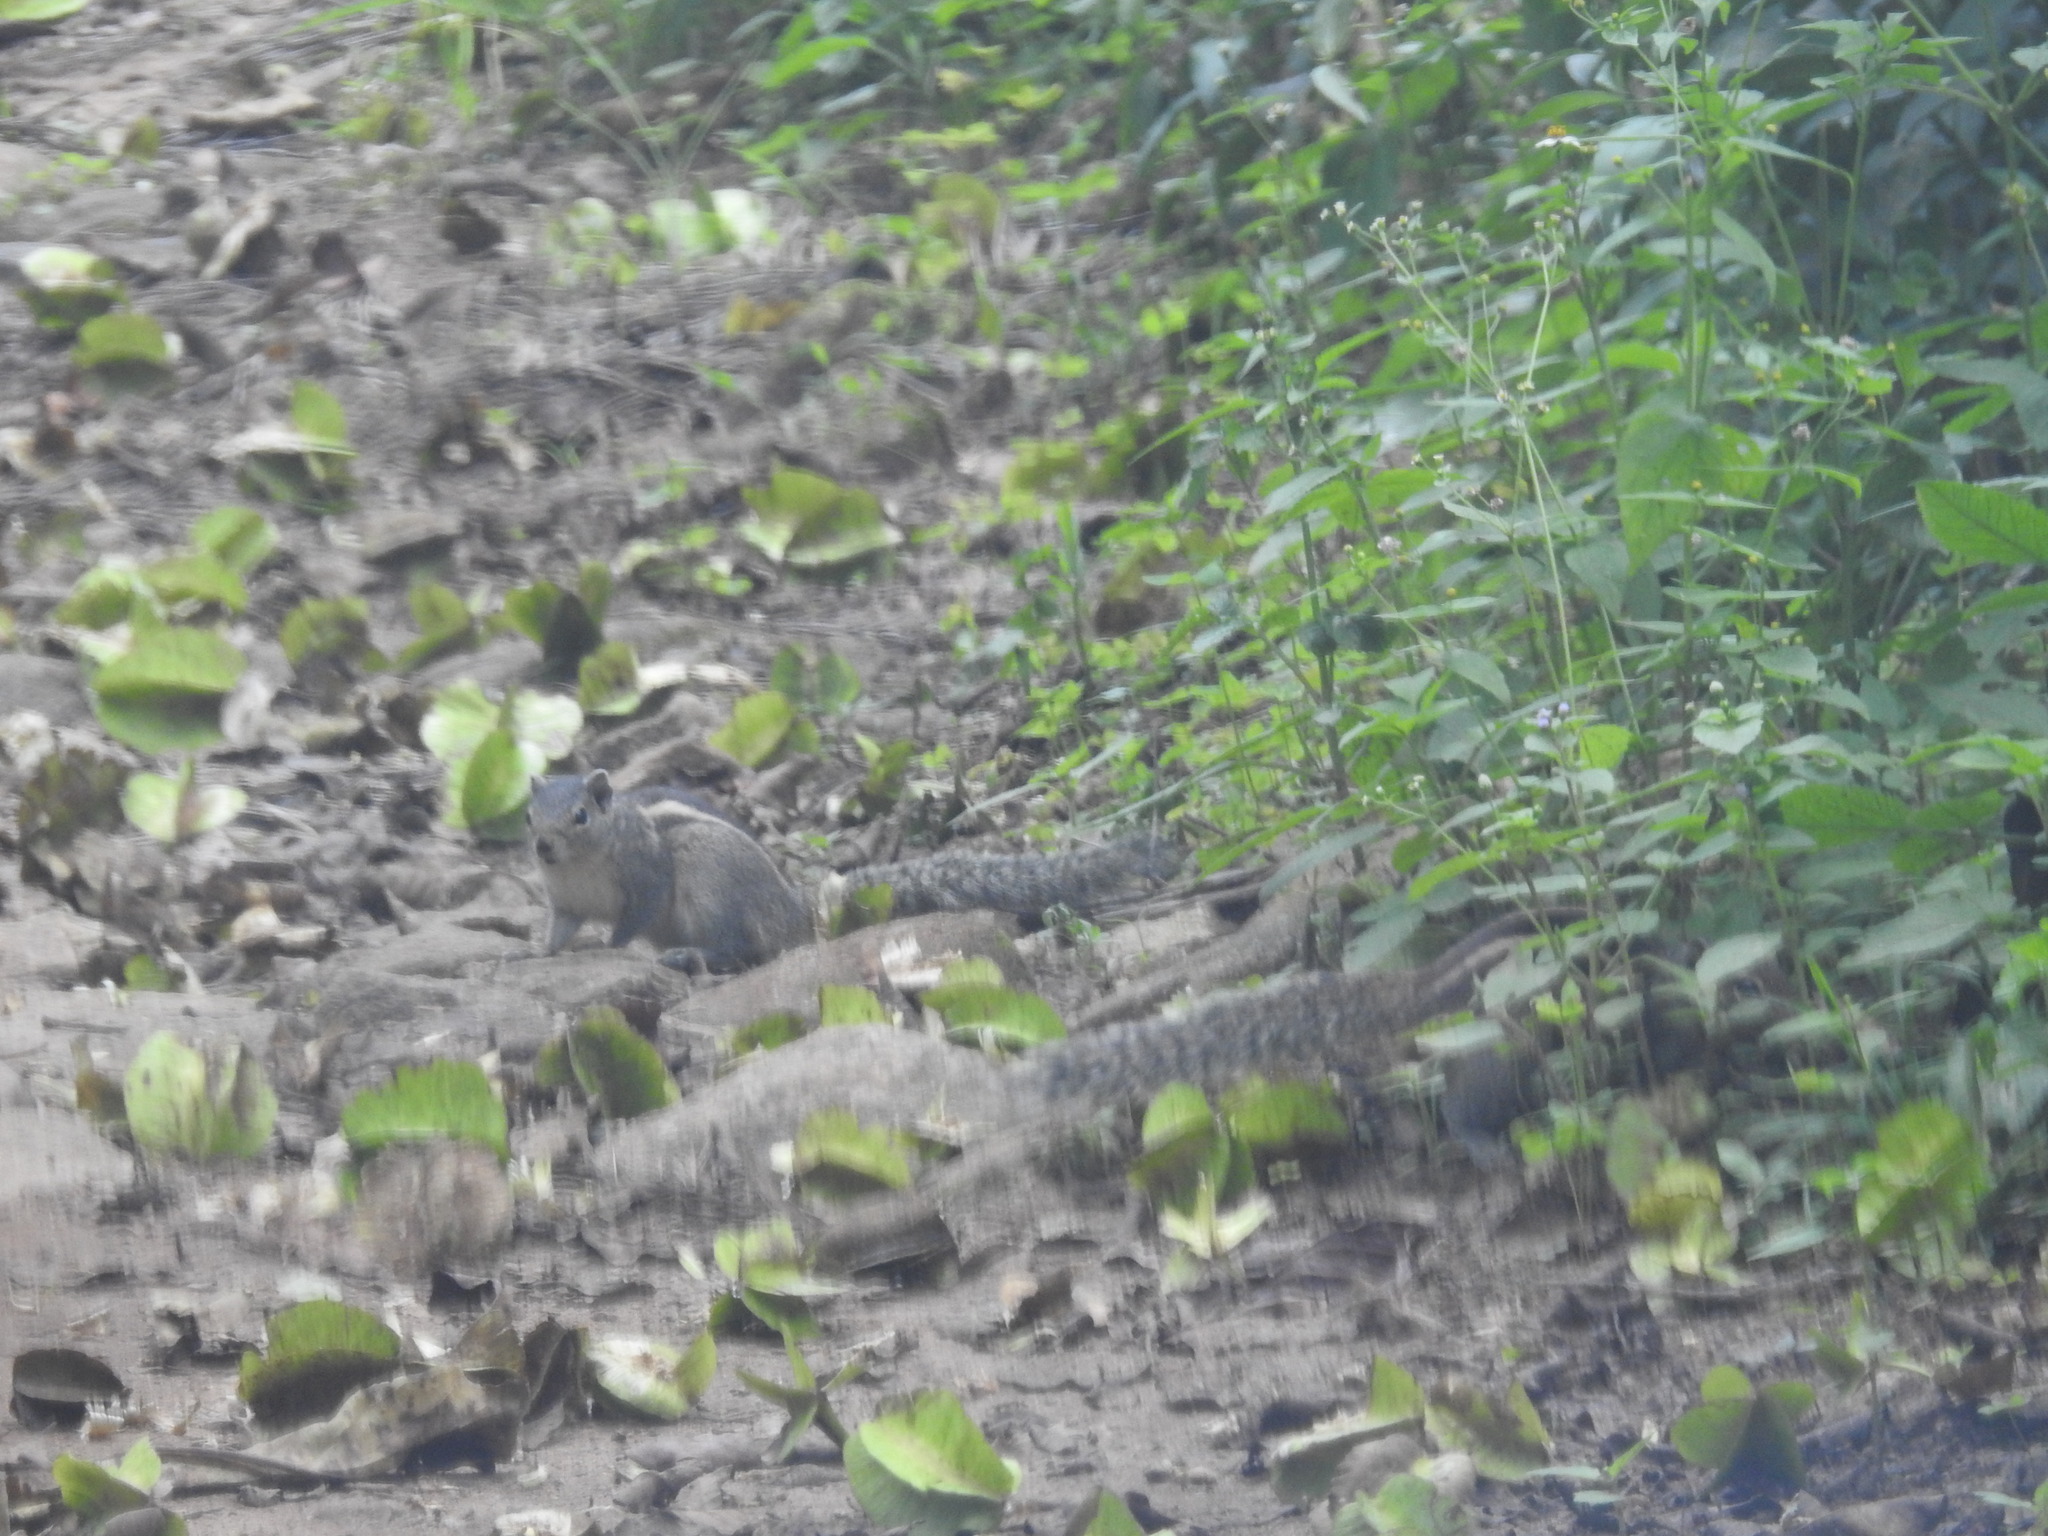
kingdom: Animalia
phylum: Chordata
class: Mammalia
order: Rodentia
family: Sciuridae
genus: Funambulus
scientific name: Funambulus palmarum
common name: Indian palm squirrel
